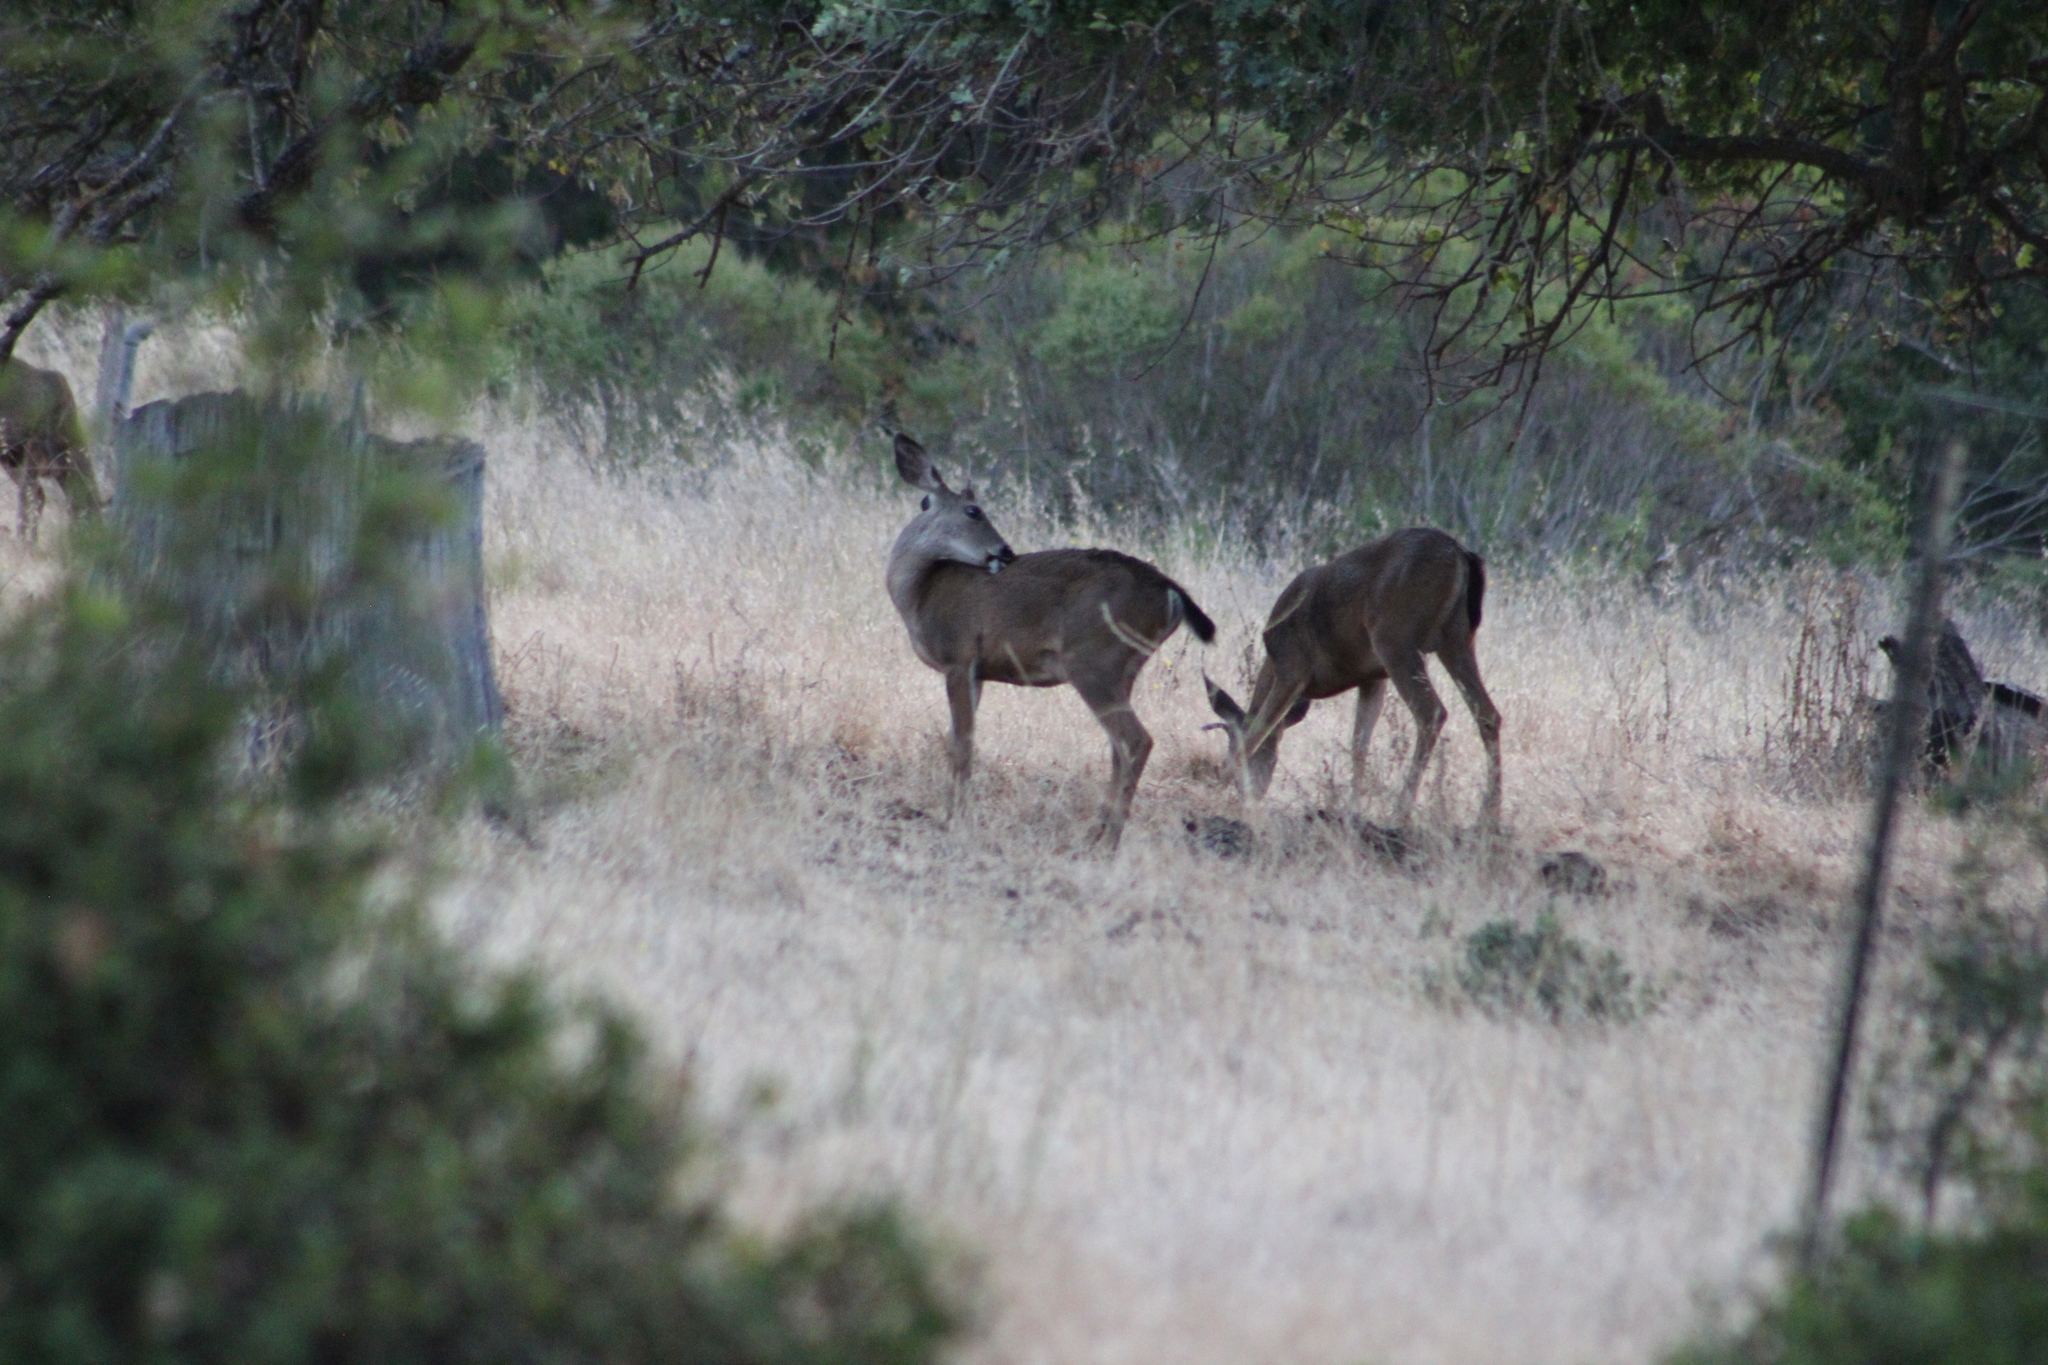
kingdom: Animalia
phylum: Chordata
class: Mammalia
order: Artiodactyla
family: Cervidae
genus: Odocoileus
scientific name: Odocoileus hemionus
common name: Mule deer
